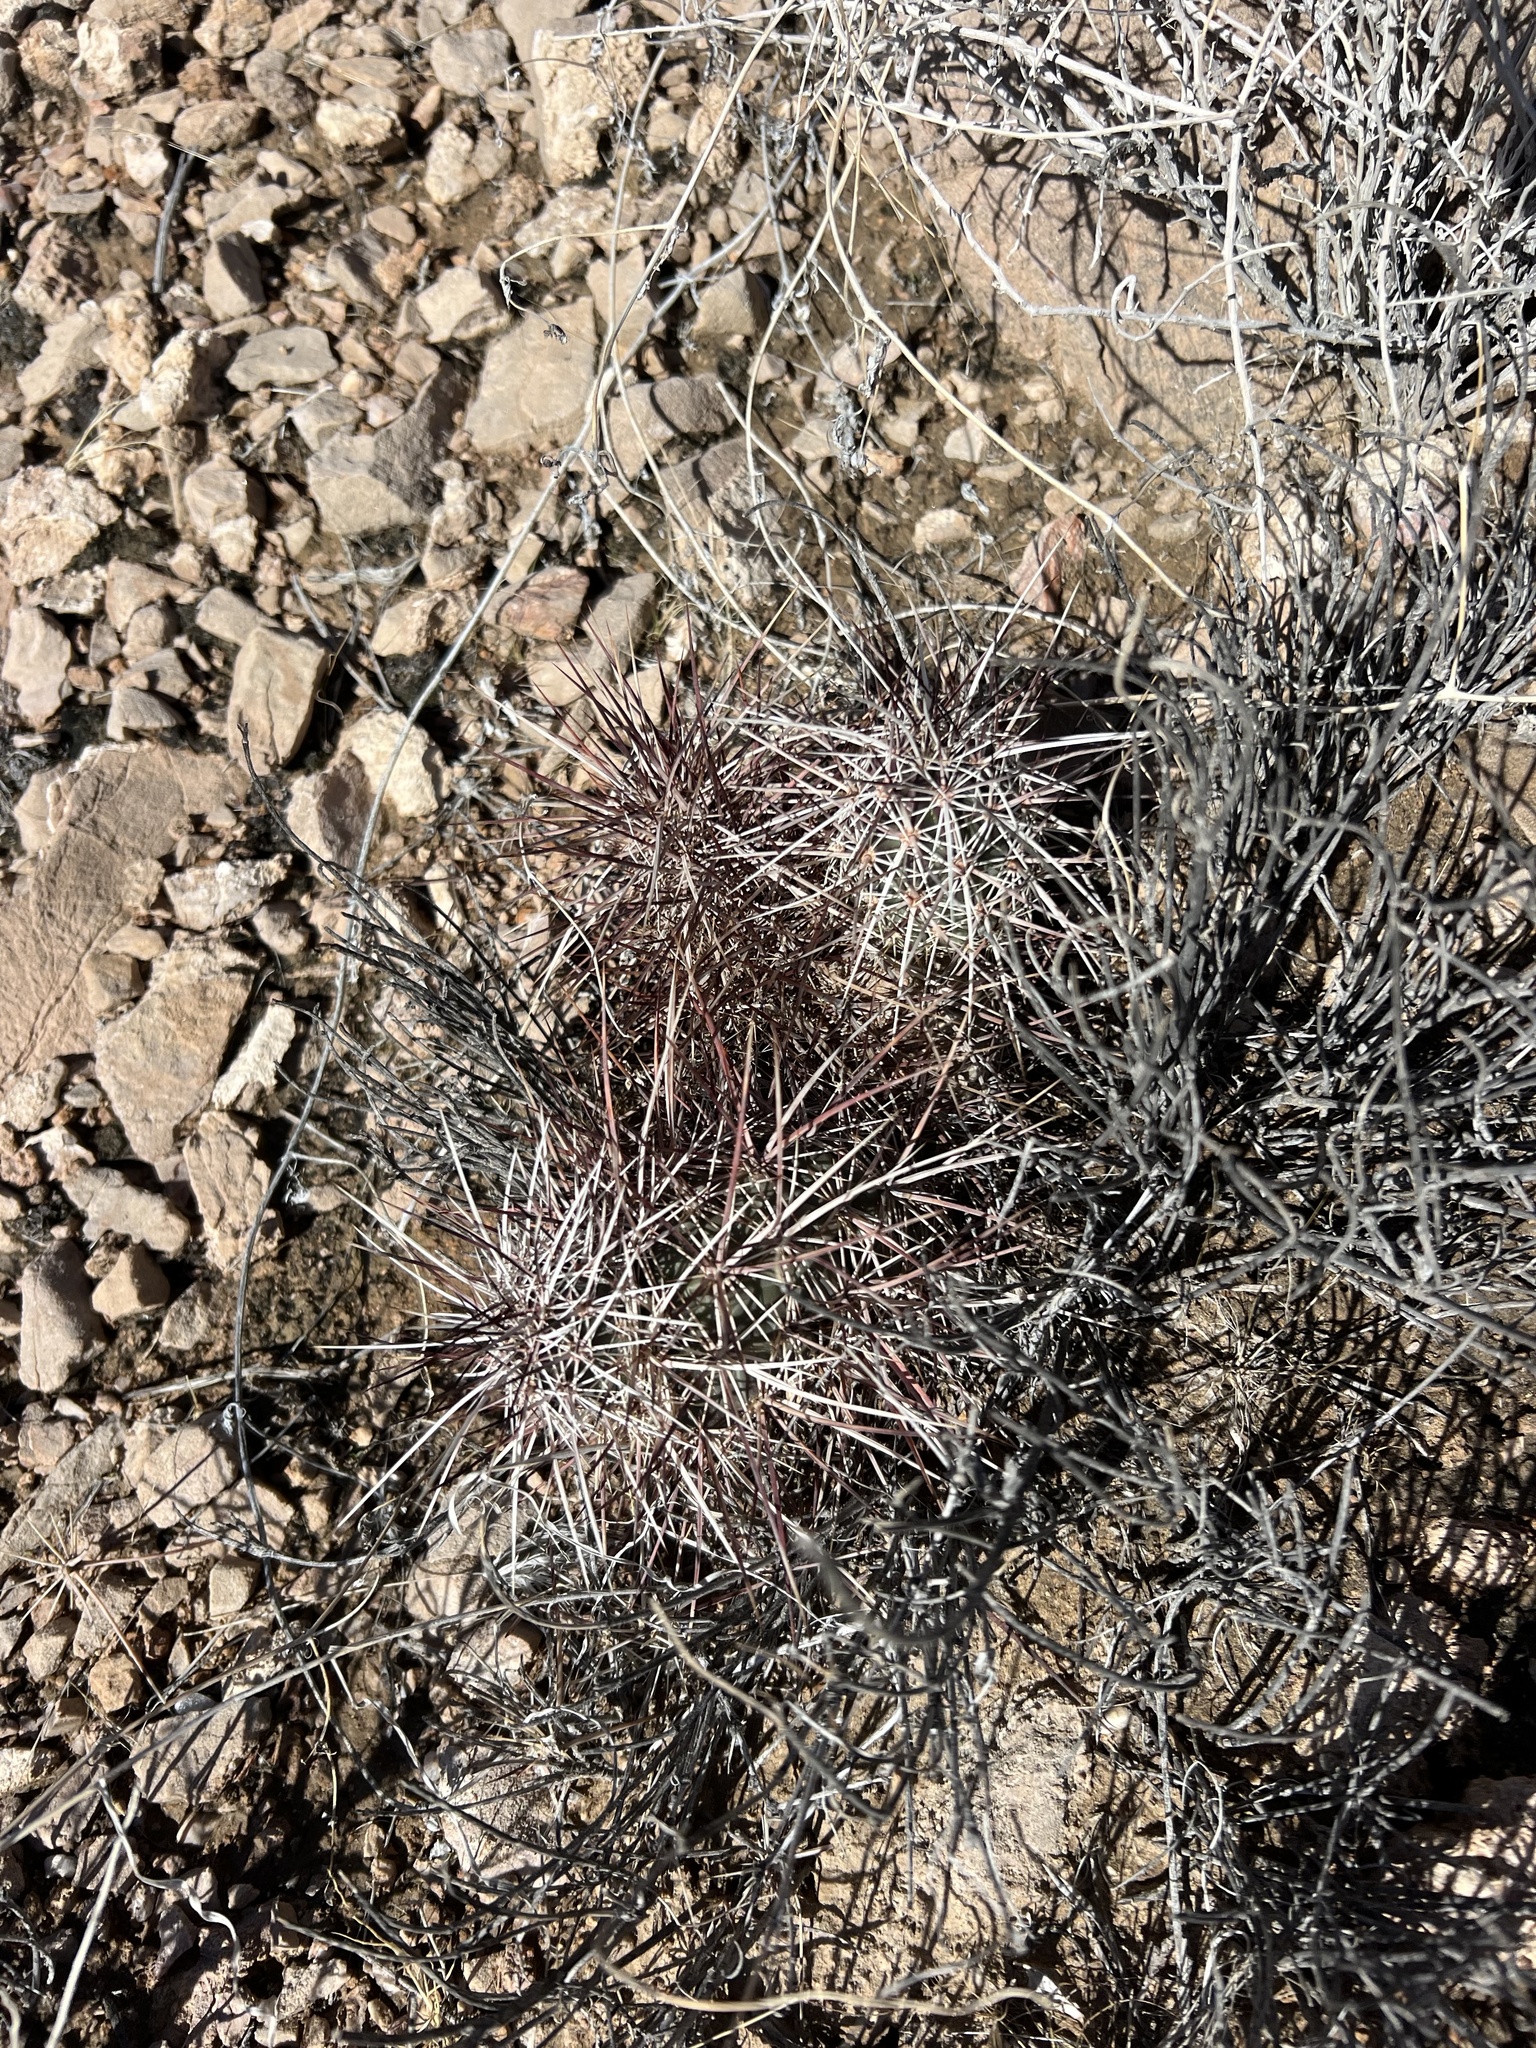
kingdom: Plantae
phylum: Tracheophyta
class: Magnoliopsida
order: Caryophyllales
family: Cactaceae
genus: Echinocereus
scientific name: Echinocereus engelmannii
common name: Engelmann's hedgehog cactus
